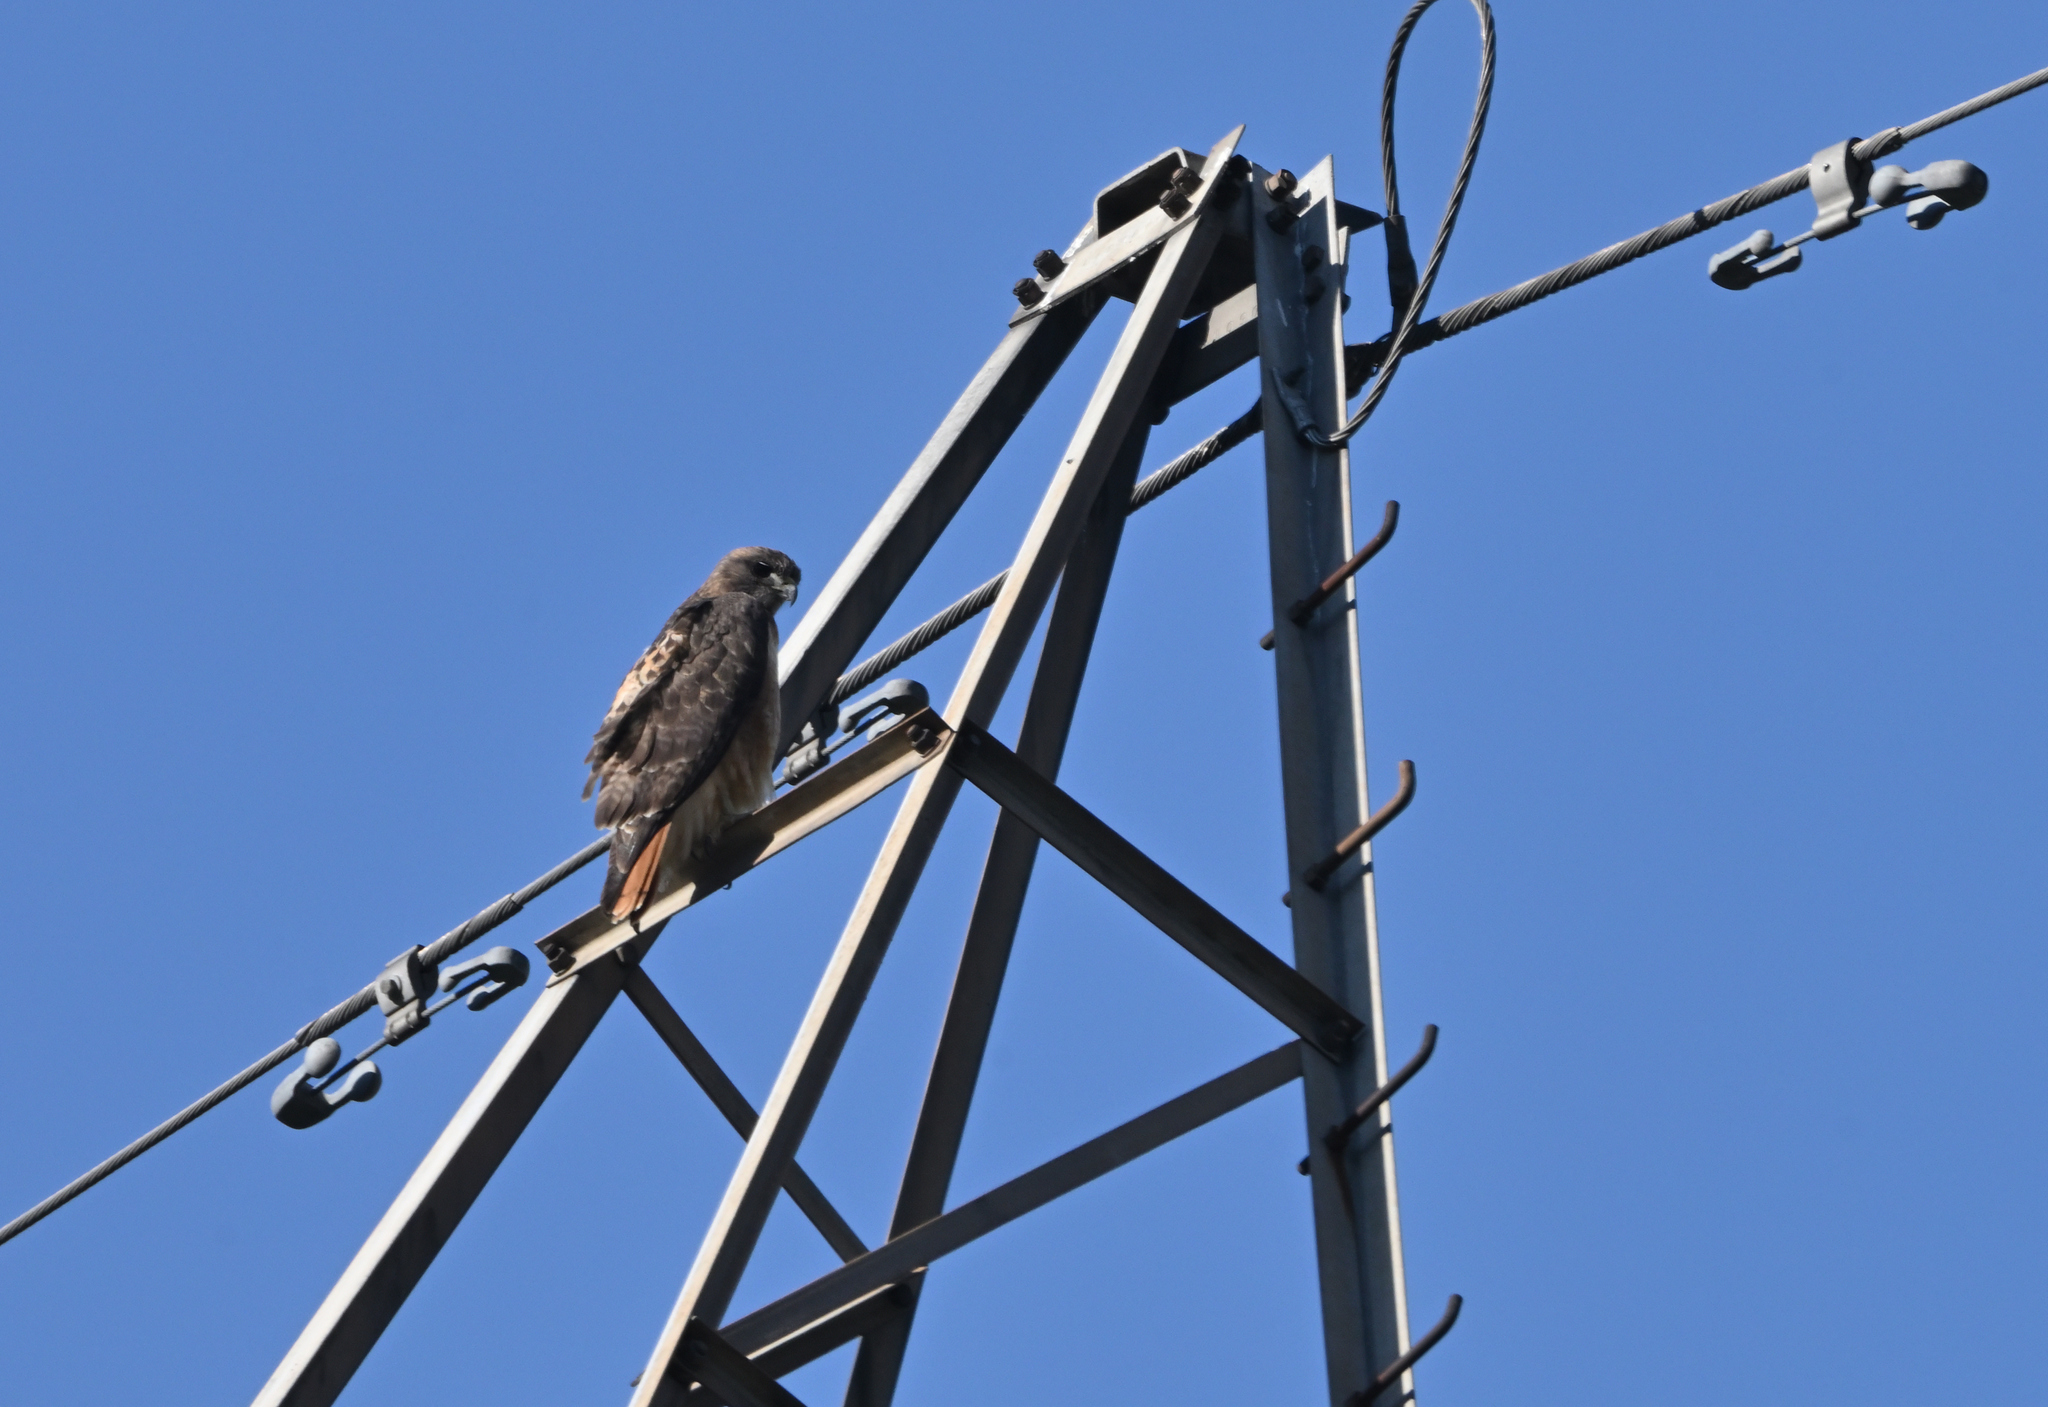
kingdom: Animalia
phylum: Chordata
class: Aves
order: Accipitriformes
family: Accipitridae
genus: Buteo
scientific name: Buteo jamaicensis
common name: Red-tailed hawk
